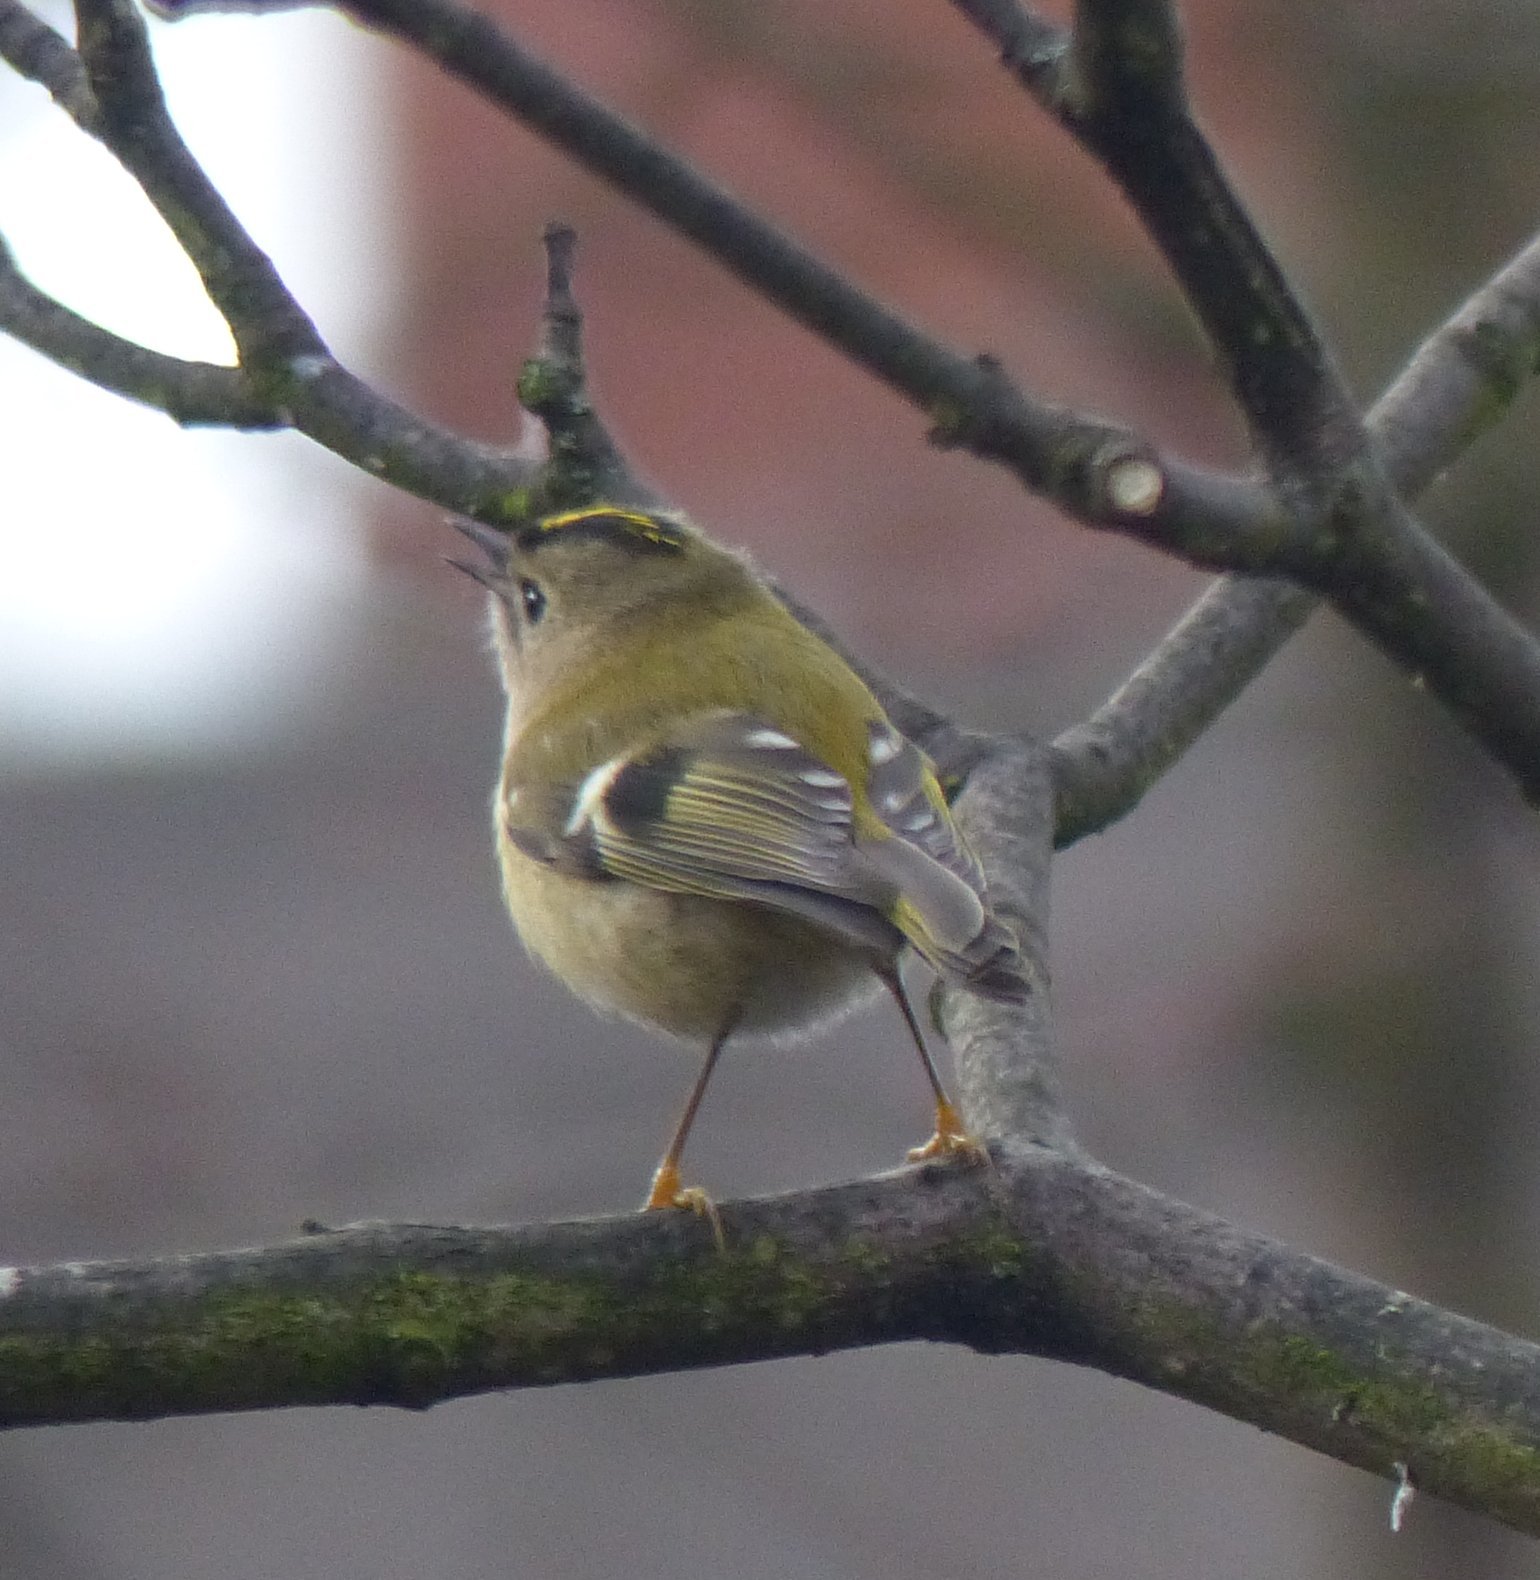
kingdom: Animalia
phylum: Chordata
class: Aves
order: Passeriformes
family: Regulidae
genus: Regulus
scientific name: Regulus regulus
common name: Goldcrest
